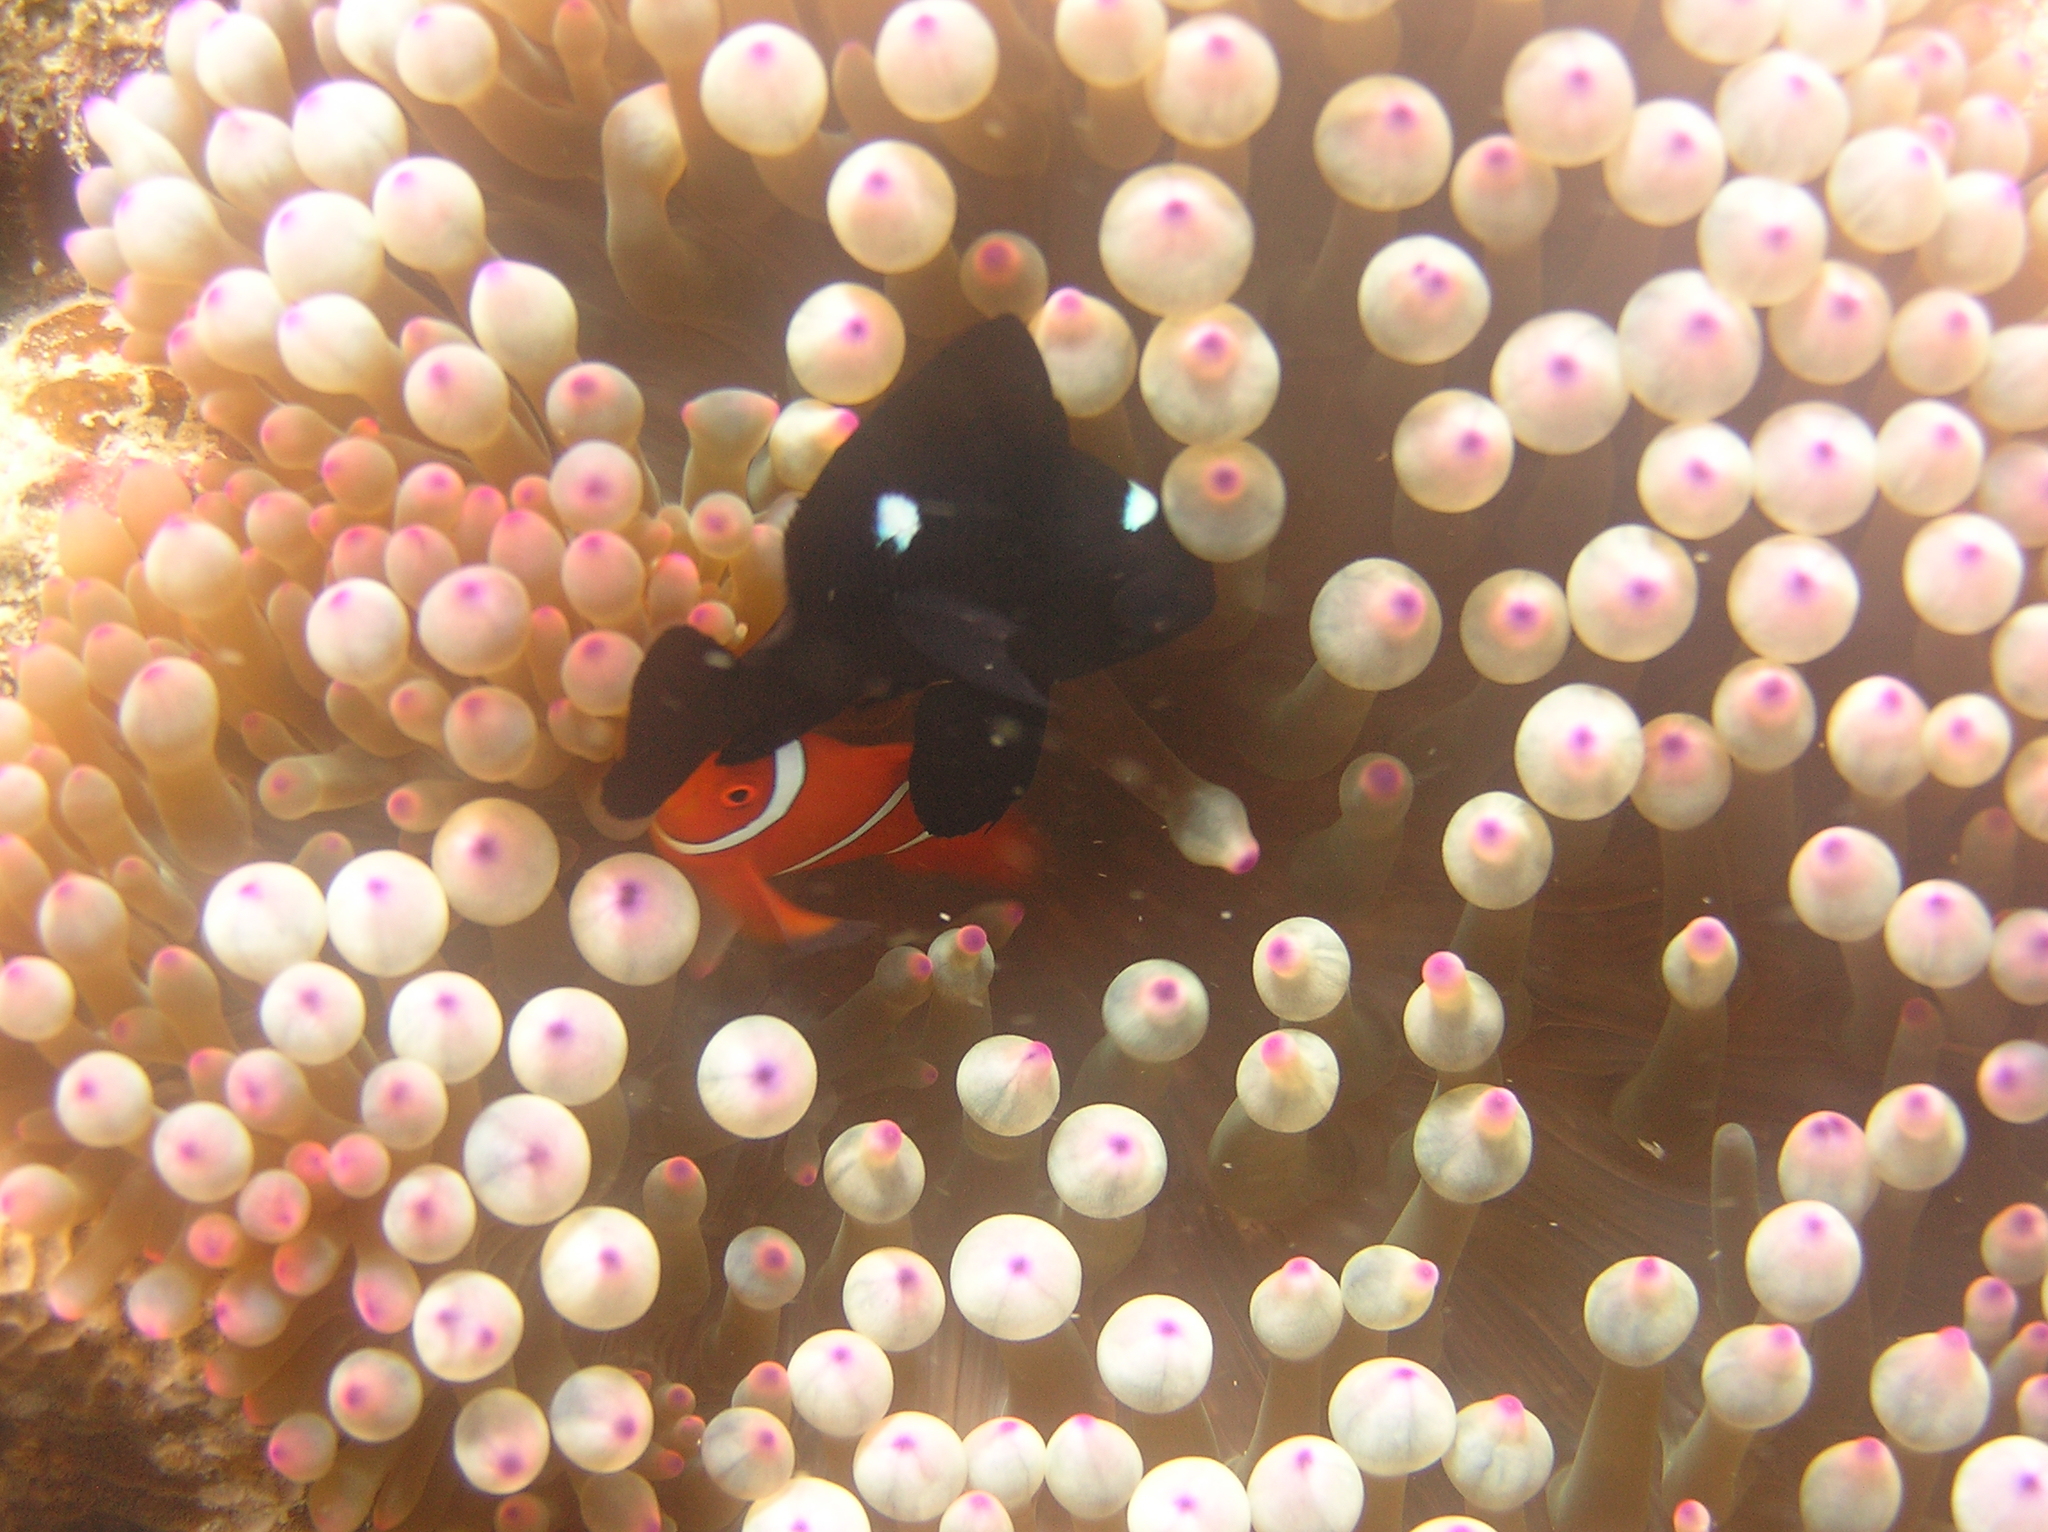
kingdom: Animalia
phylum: Chordata
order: Perciformes
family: Pomacentridae
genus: Dascyllus
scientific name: Dascyllus trimaculatus
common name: Threespot dascyllus
